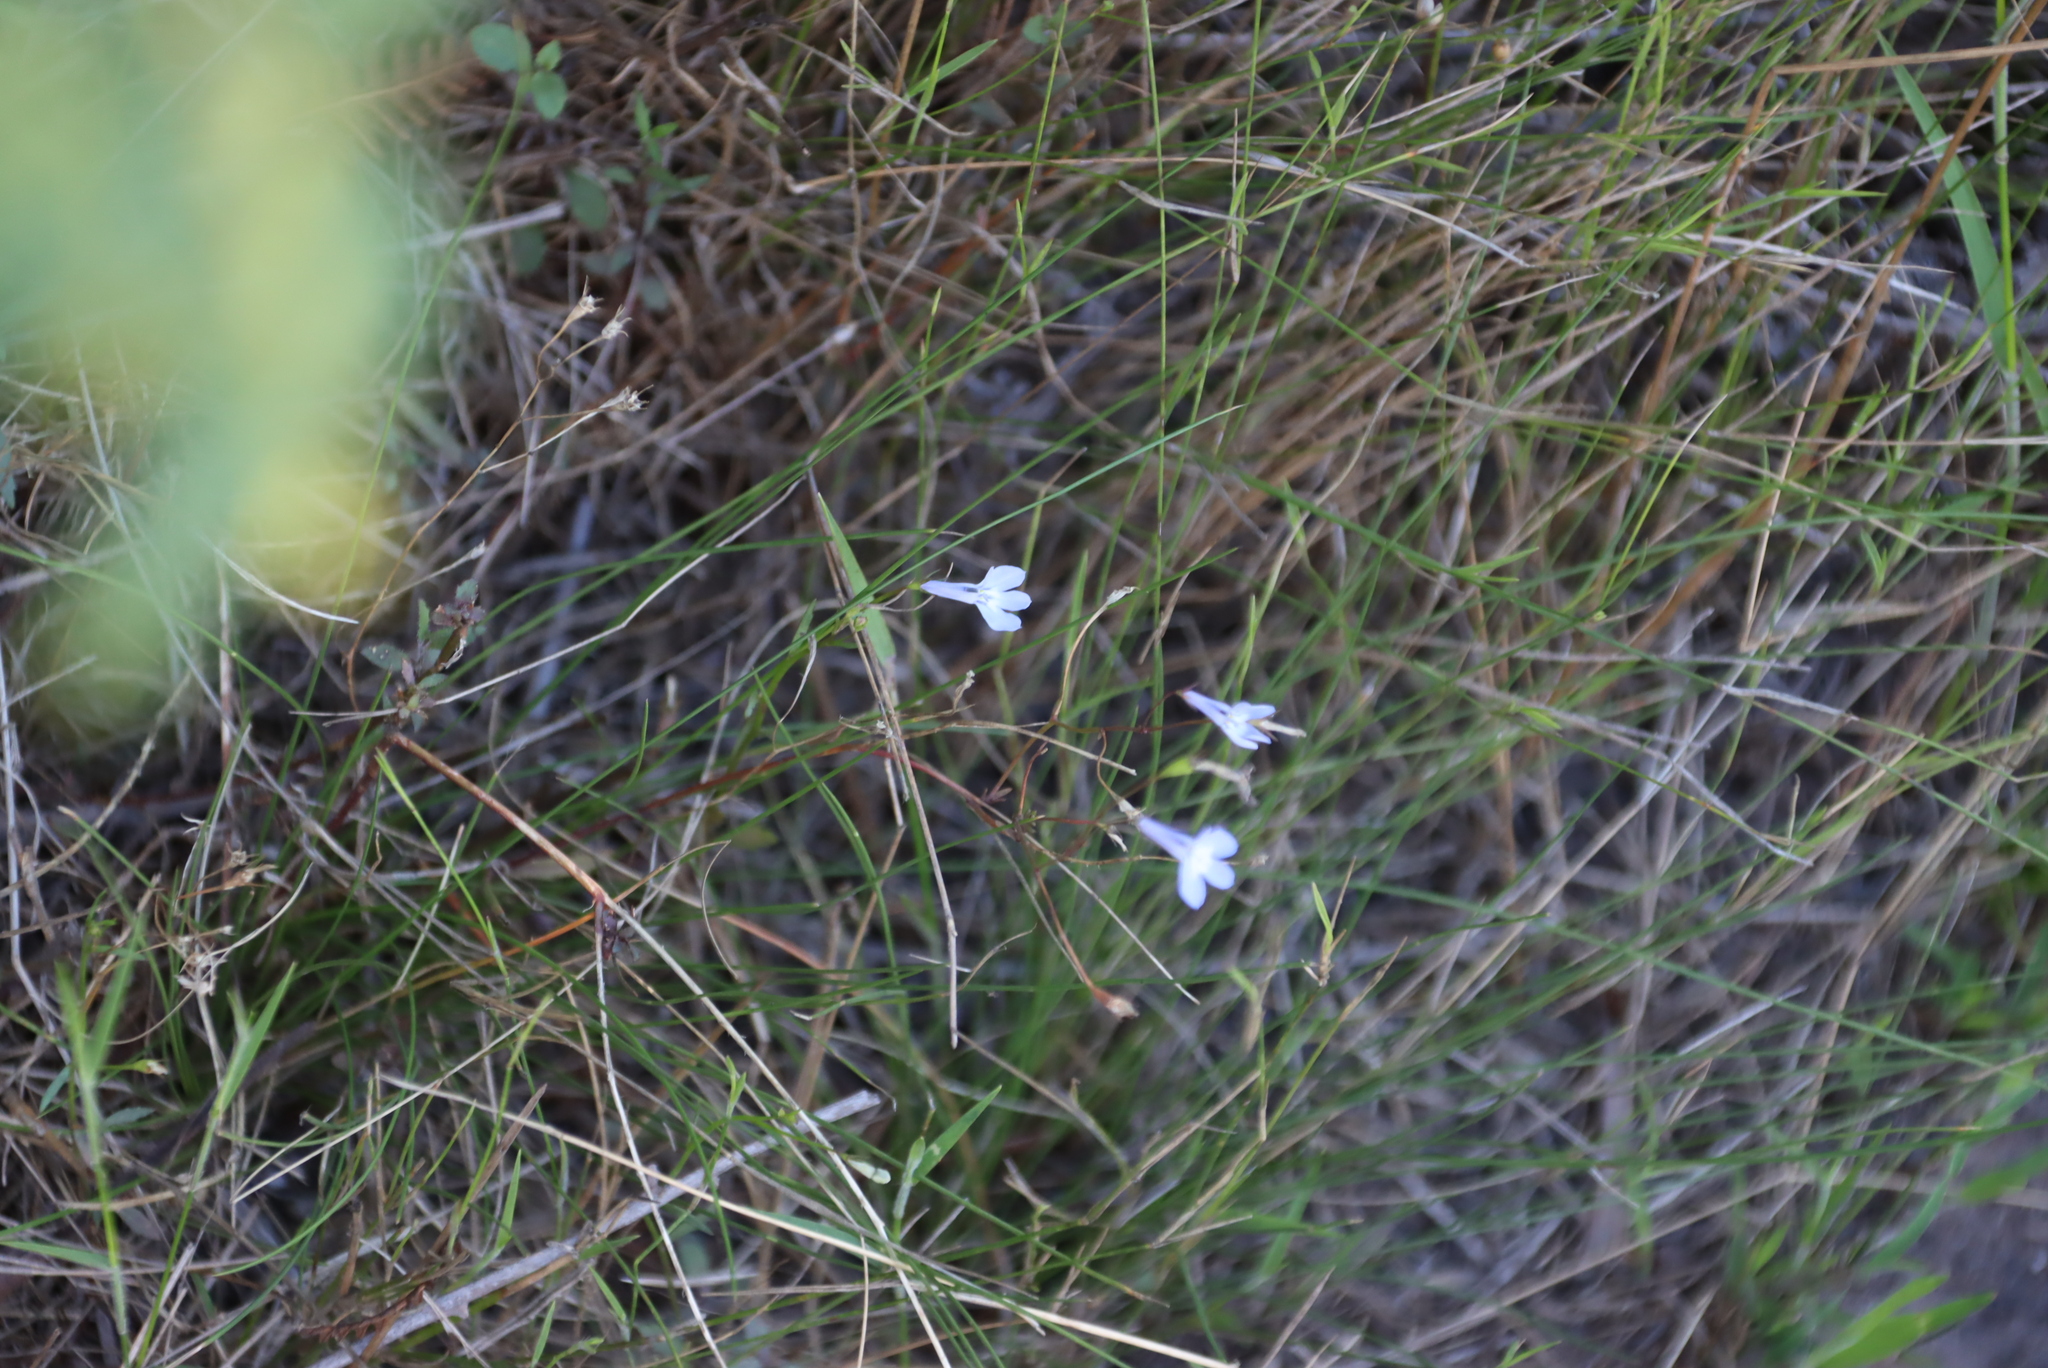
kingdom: Plantae
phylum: Tracheophyta
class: Magnoliopsida
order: Asterales
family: Campanulaceae
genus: Lobelia
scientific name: Lobelia erinus
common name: Edging lobelia
